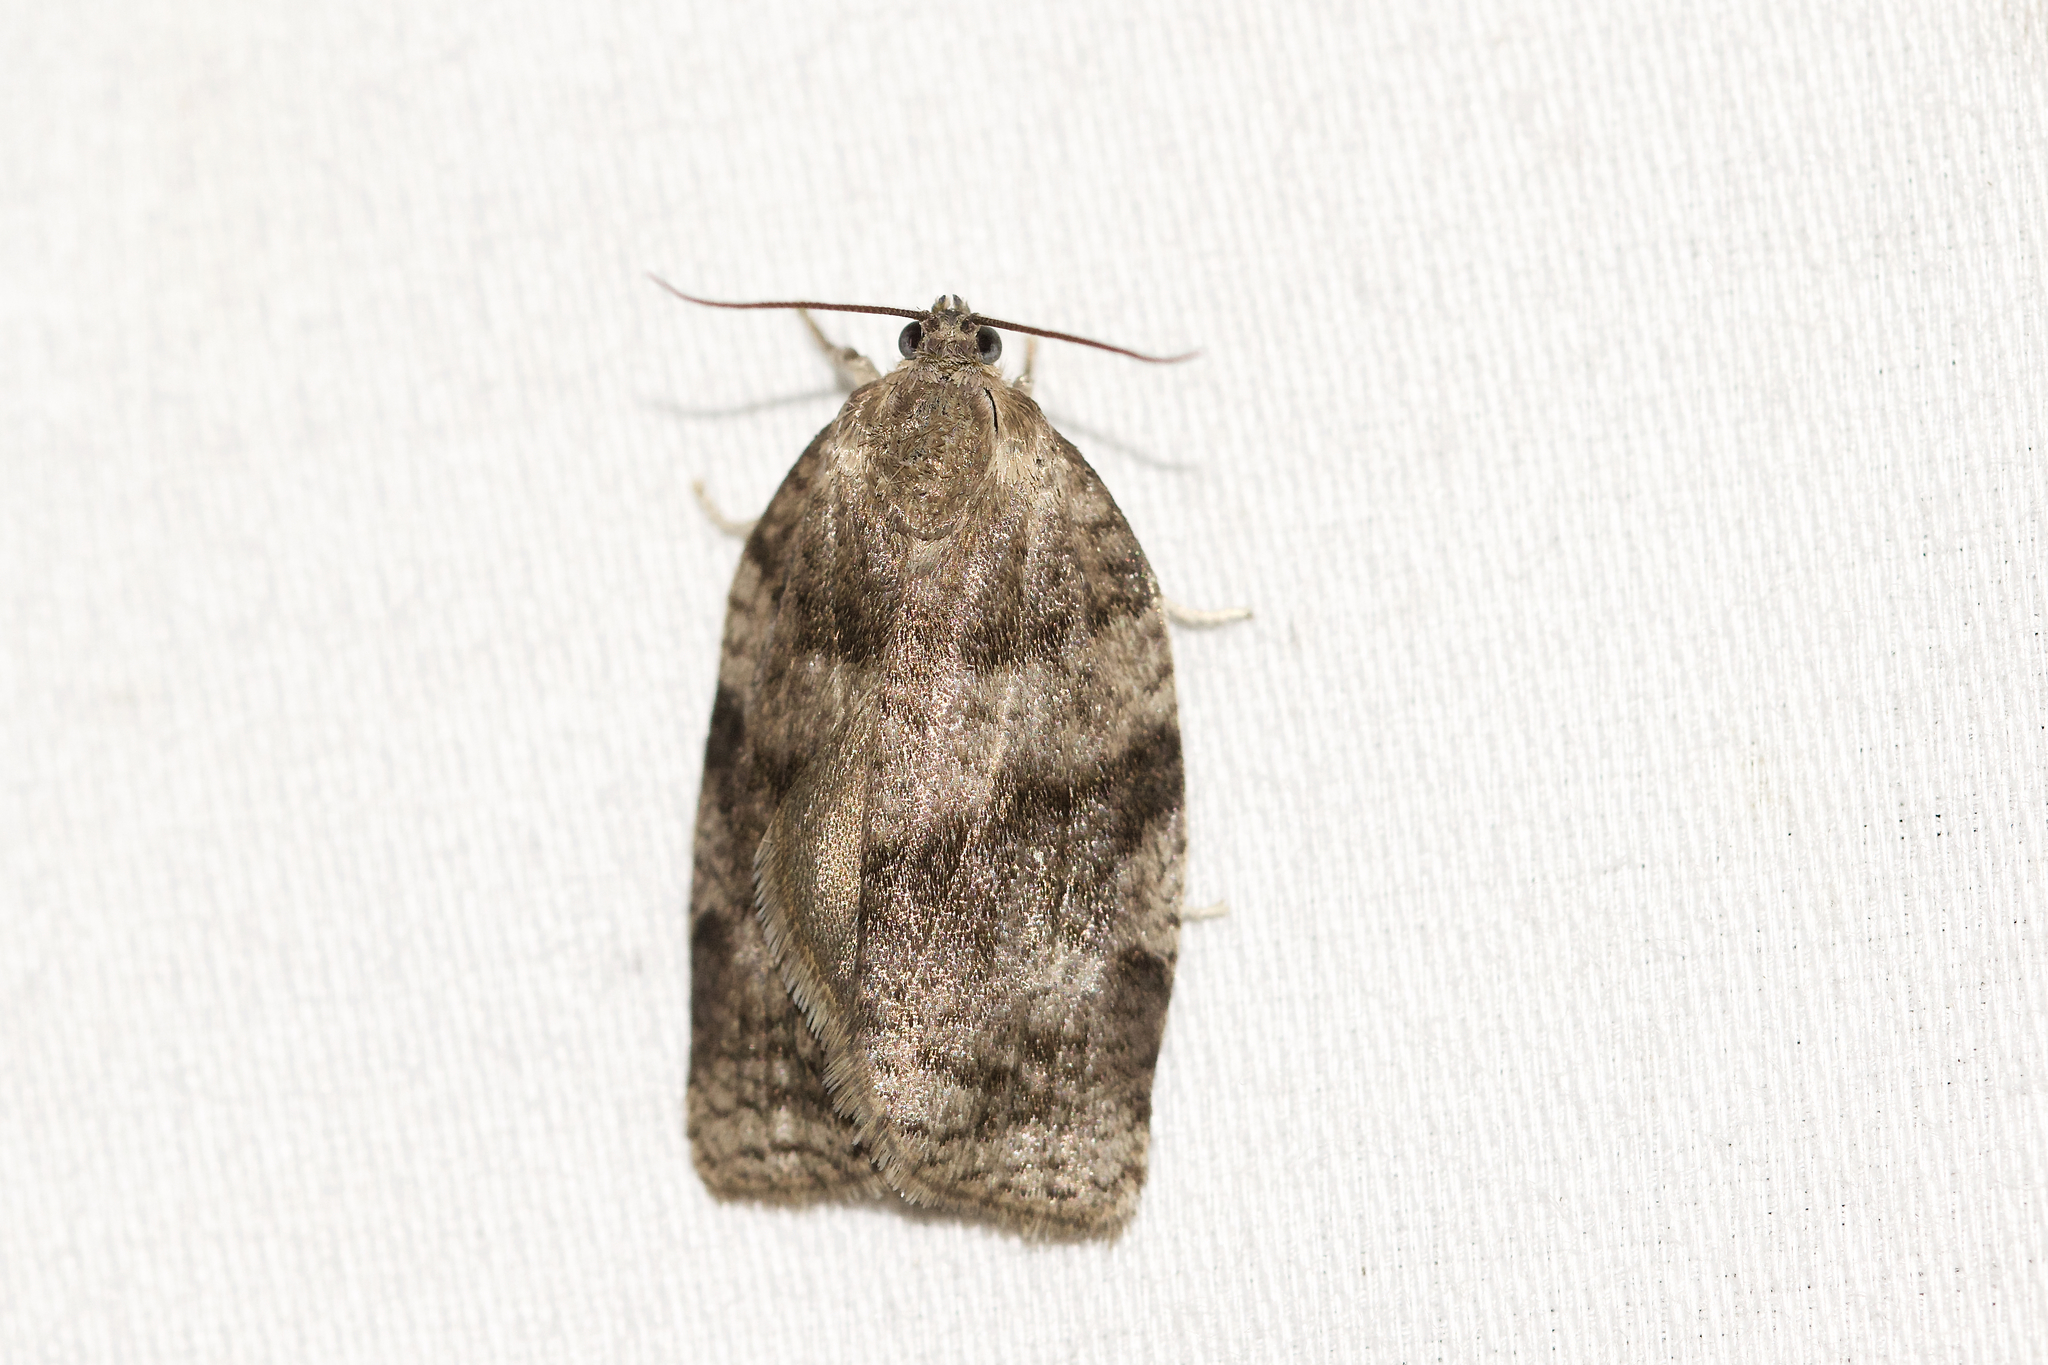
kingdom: Animalia
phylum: Arthropoda
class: Insecta
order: Lepidoptera
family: Tortricidae
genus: Choristoneura
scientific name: Choristoneura conflictana
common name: Large aspen tortrix
